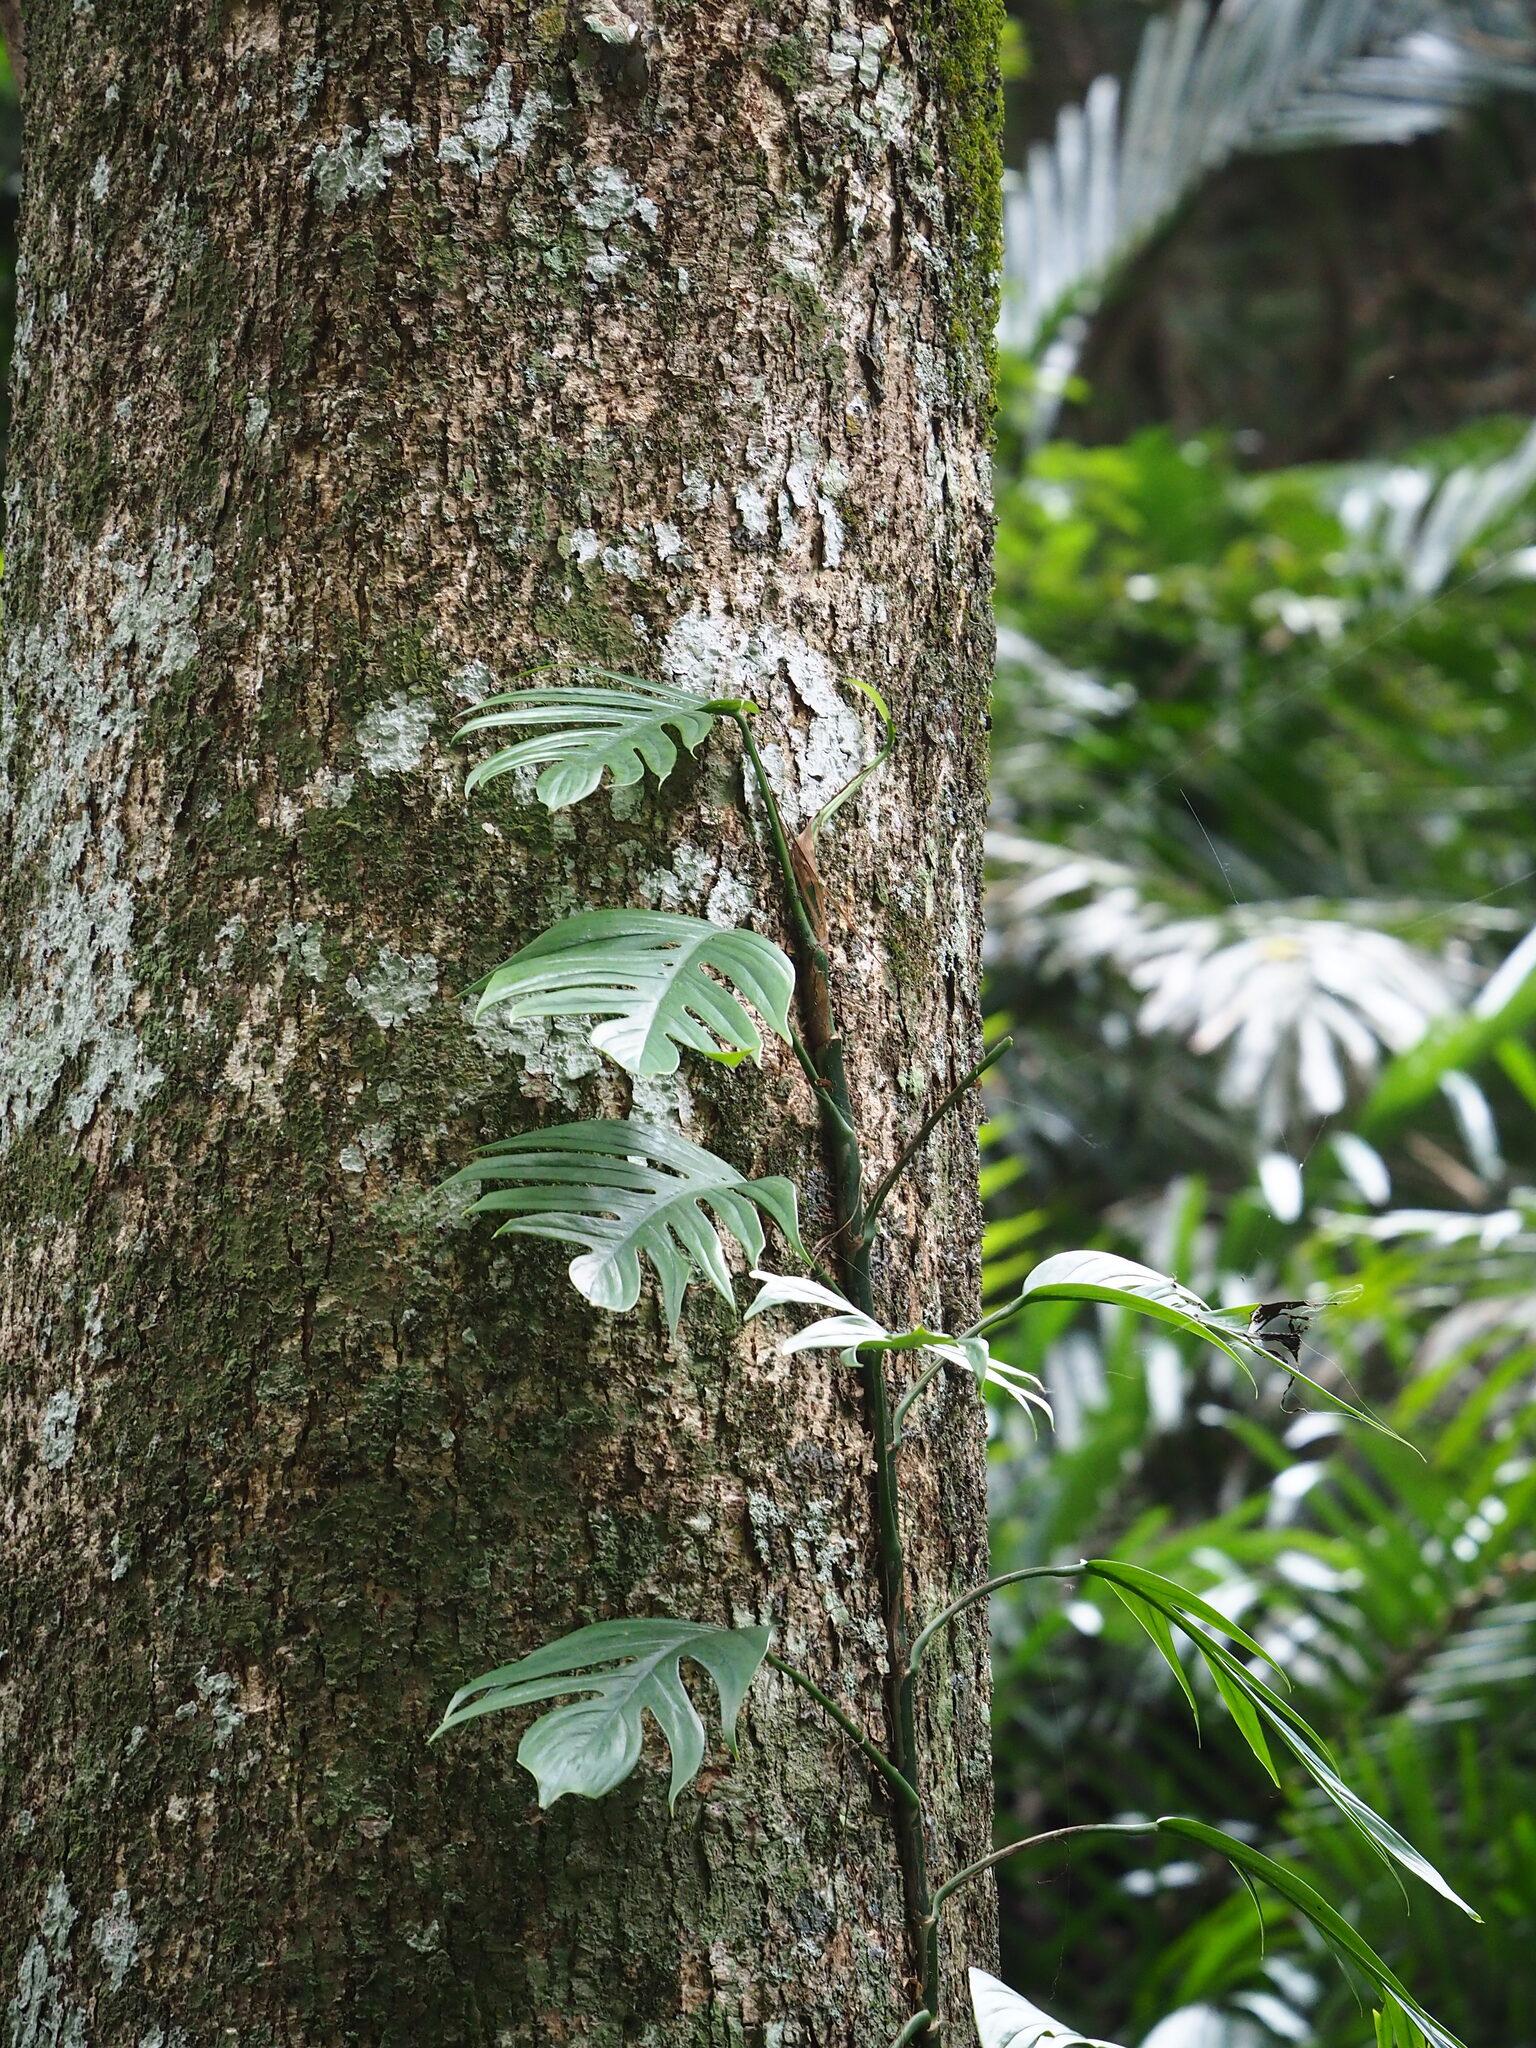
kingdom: Plantae
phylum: Tracheophyta
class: Liliopsida
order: Alismatales
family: Araceae
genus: Epipremnum
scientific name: Epipremnum pinnatum
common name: Centipede tongavine
